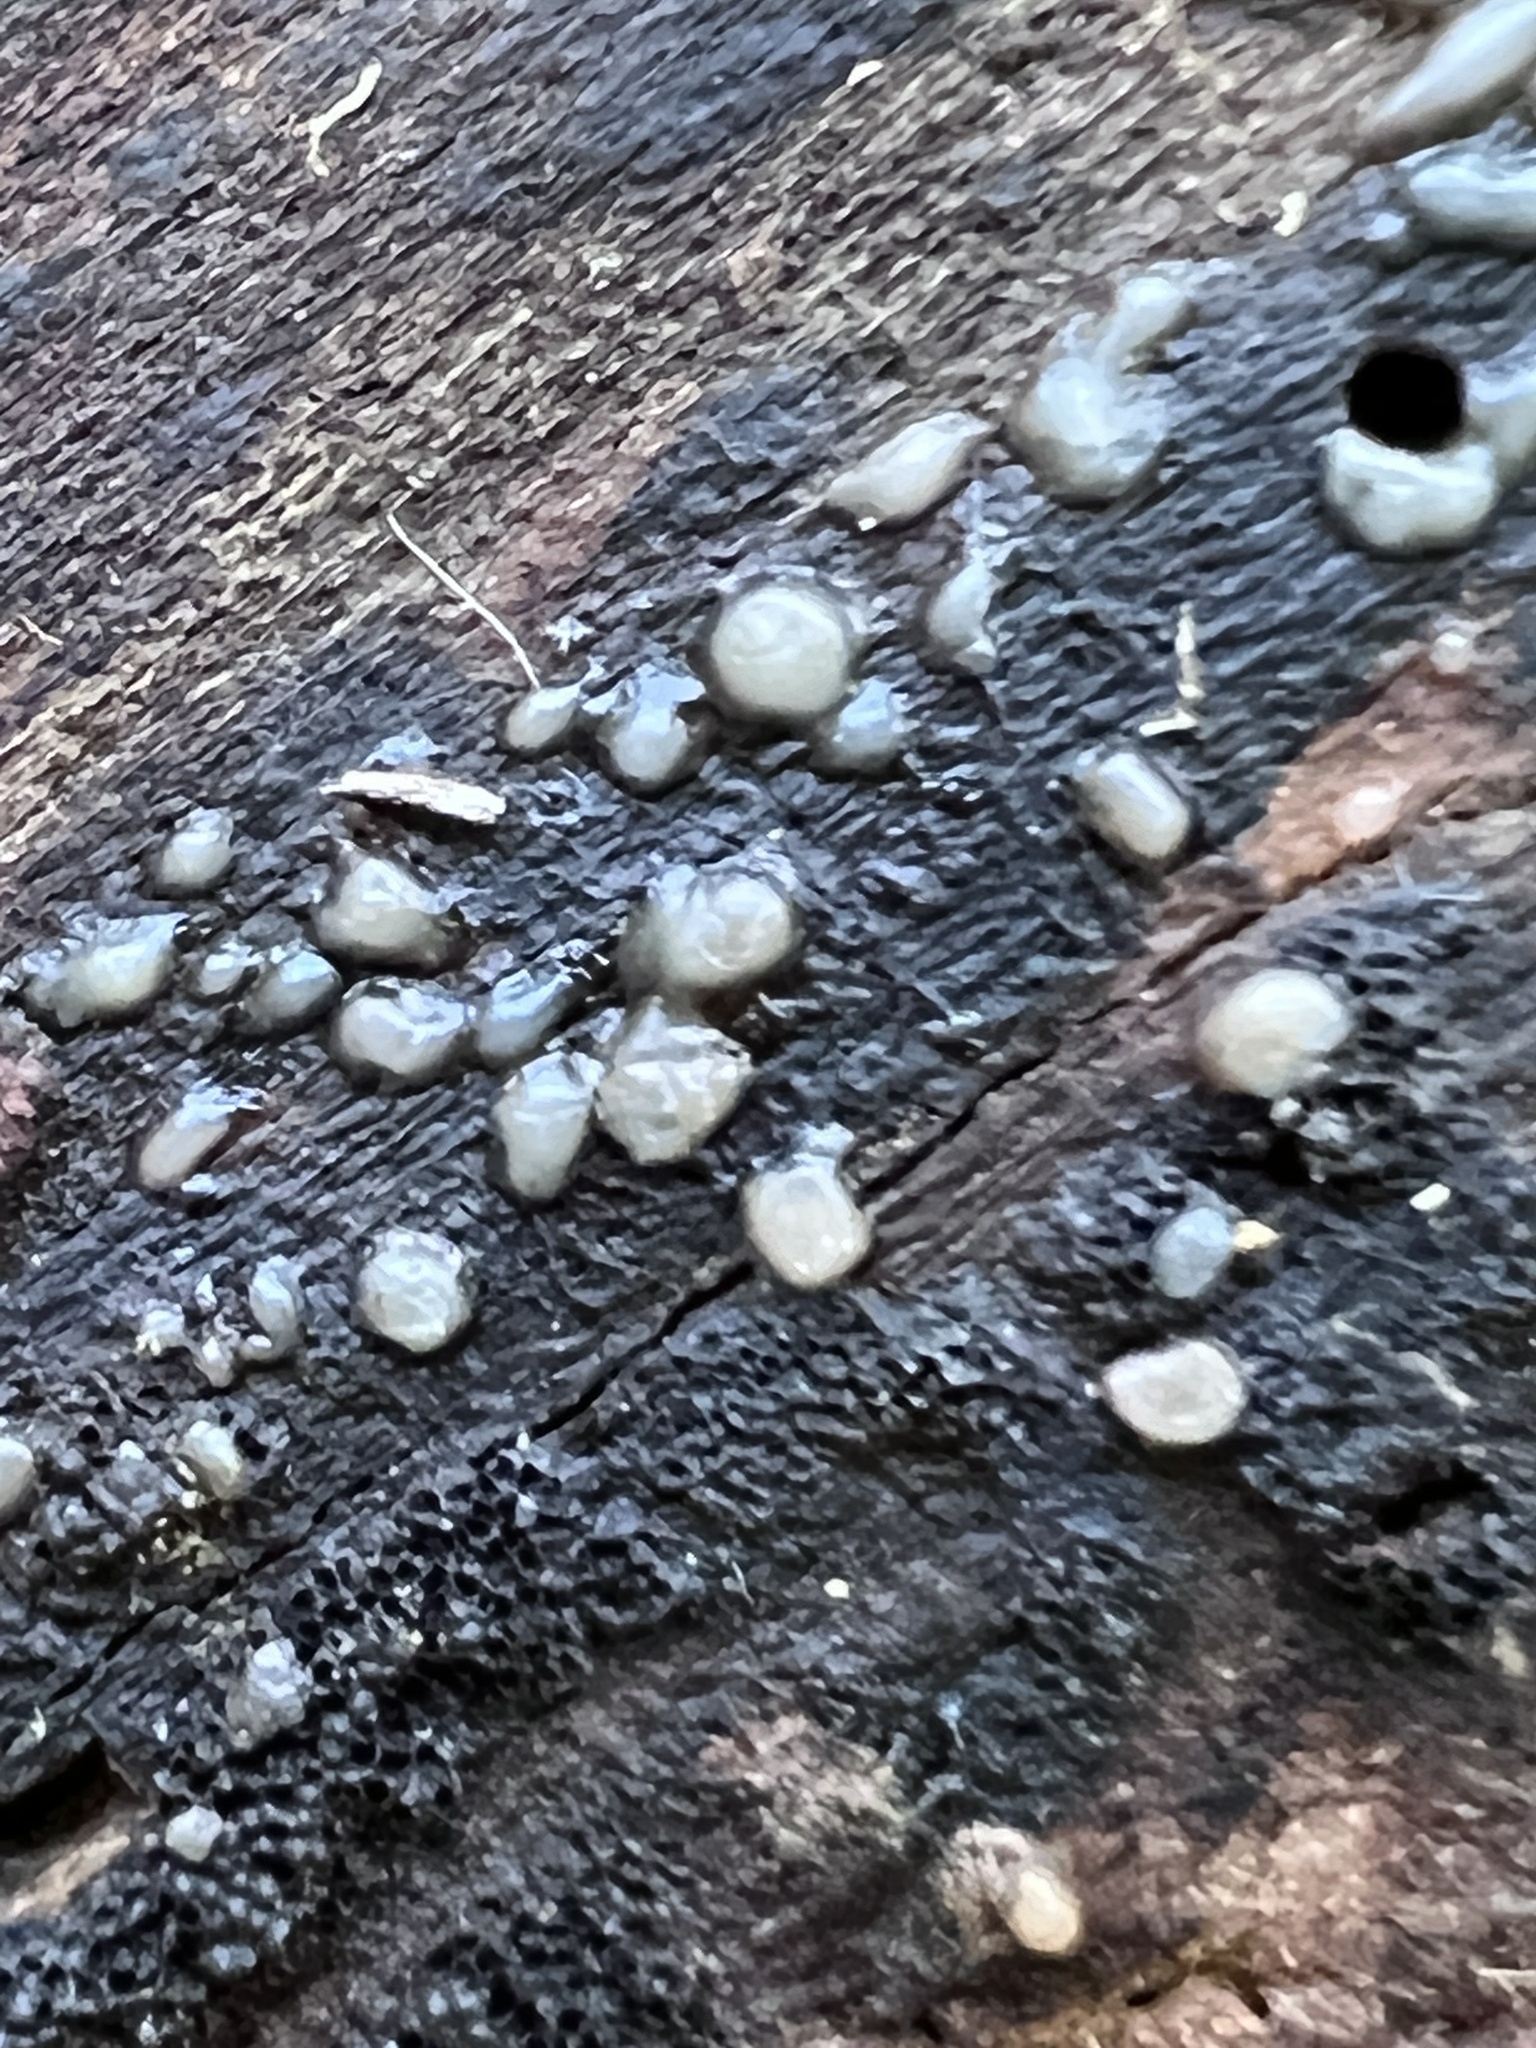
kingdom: Fungi
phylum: Basidiomycota
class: Atractiellomycetes
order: Atractiellales
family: Phleogenaceae
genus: Helicogloea
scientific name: Helicogloea compressa
